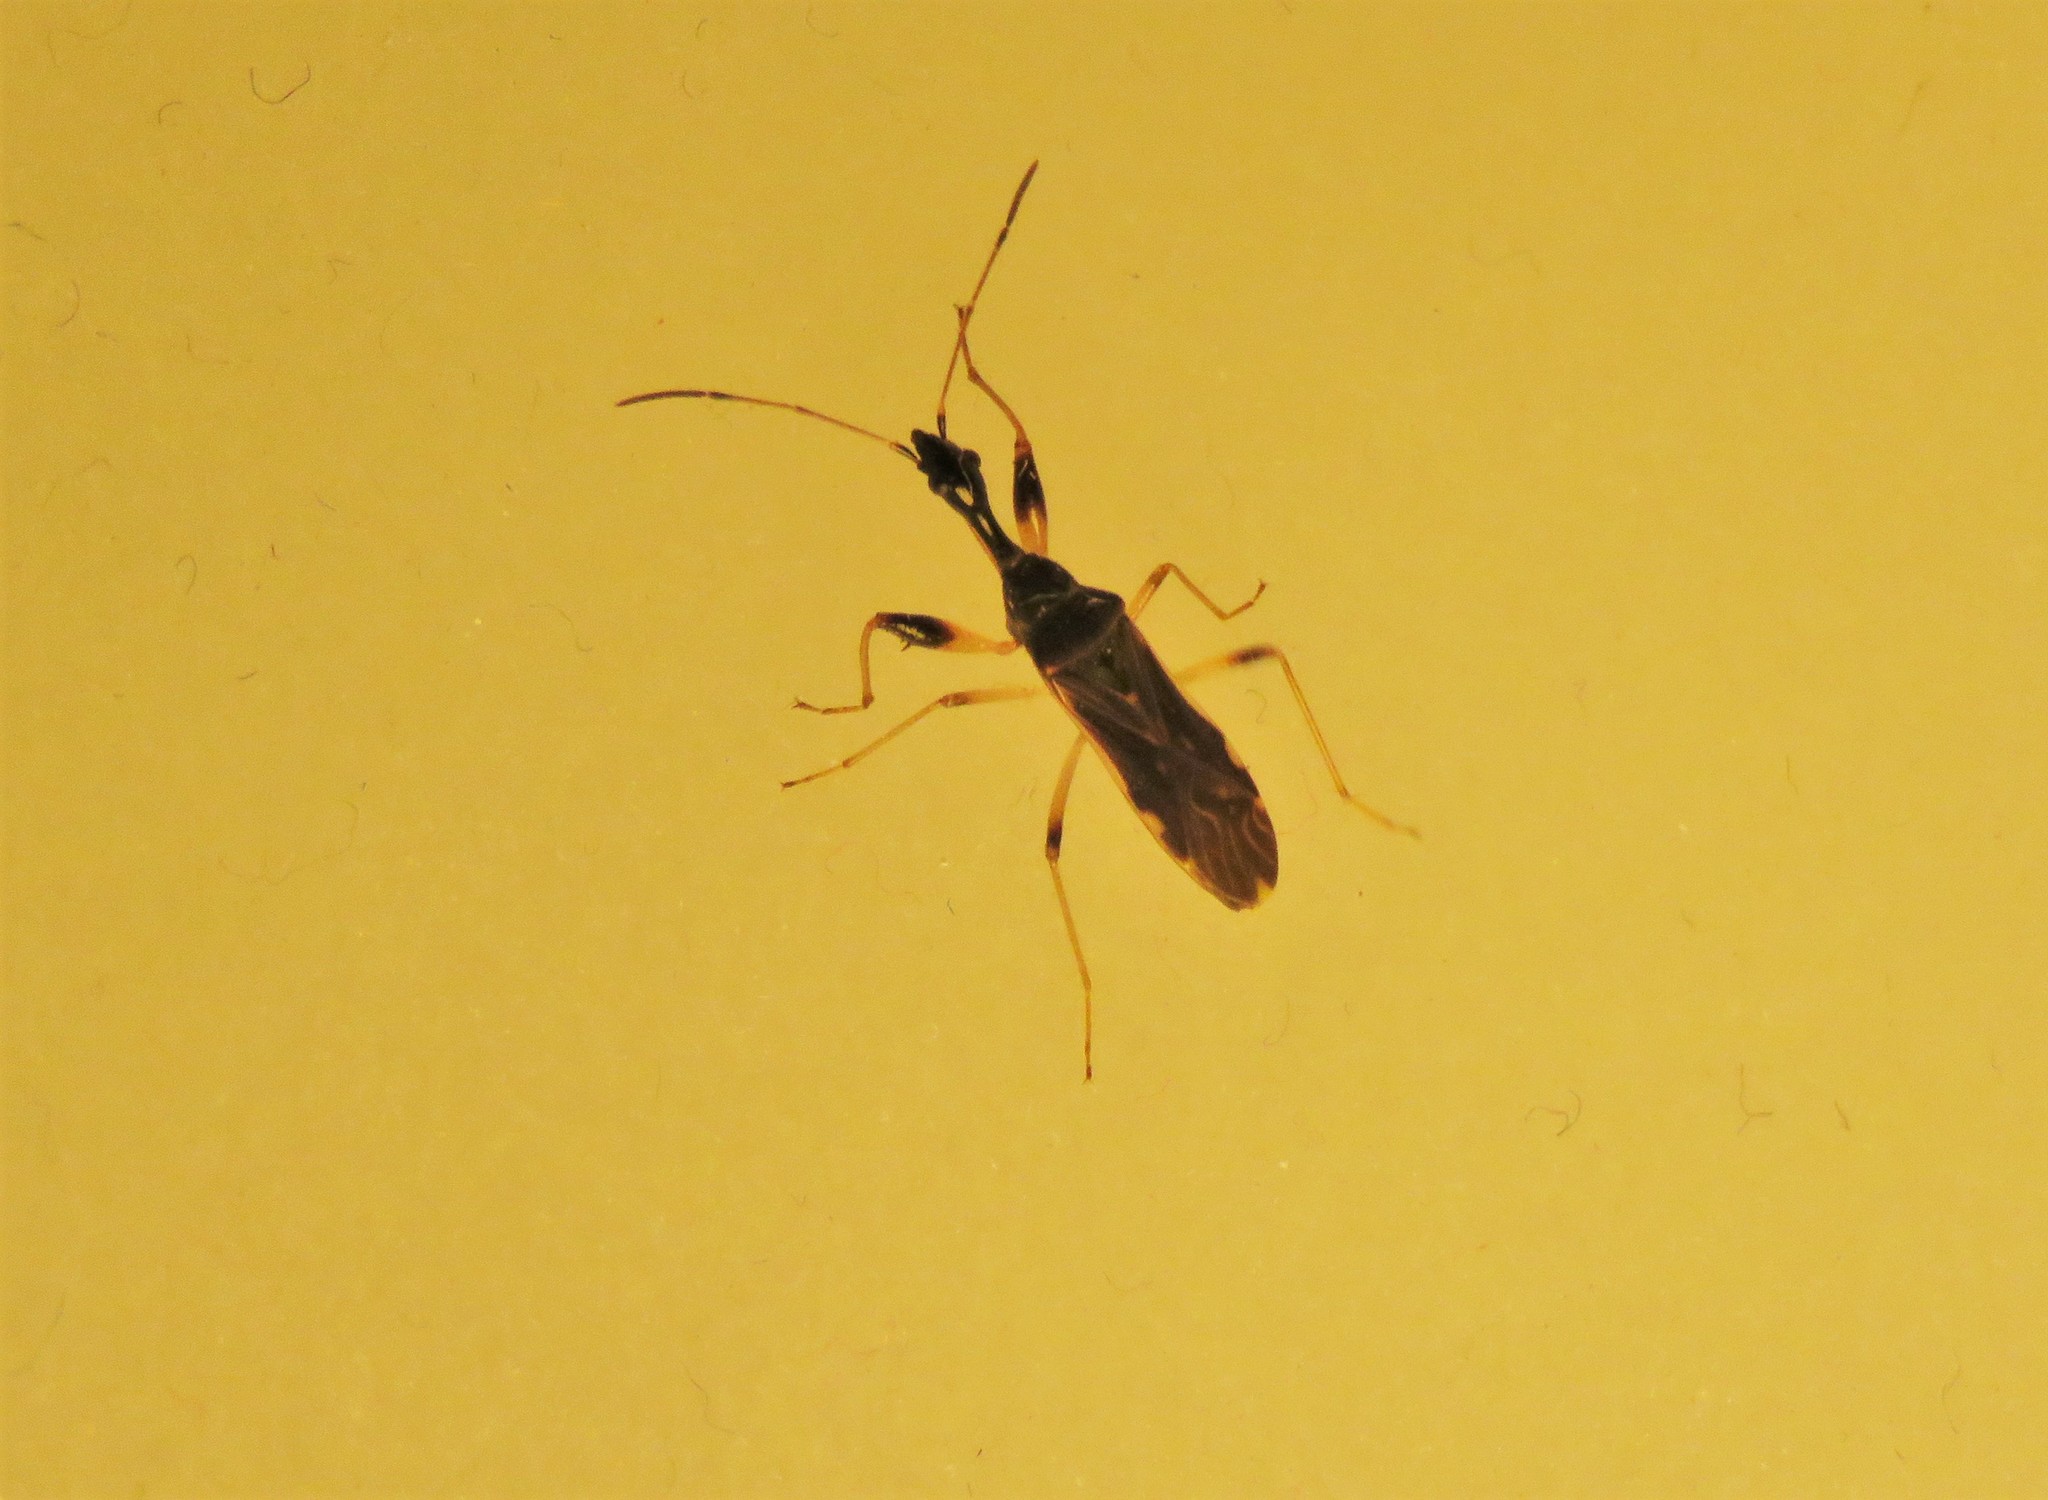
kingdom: Animalia
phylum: Arthropoda
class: Insecta
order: Hemiptera
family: Rhyparochromidae
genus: Myodocha
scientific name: Myodocha serripes
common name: Long-necked seed bug
